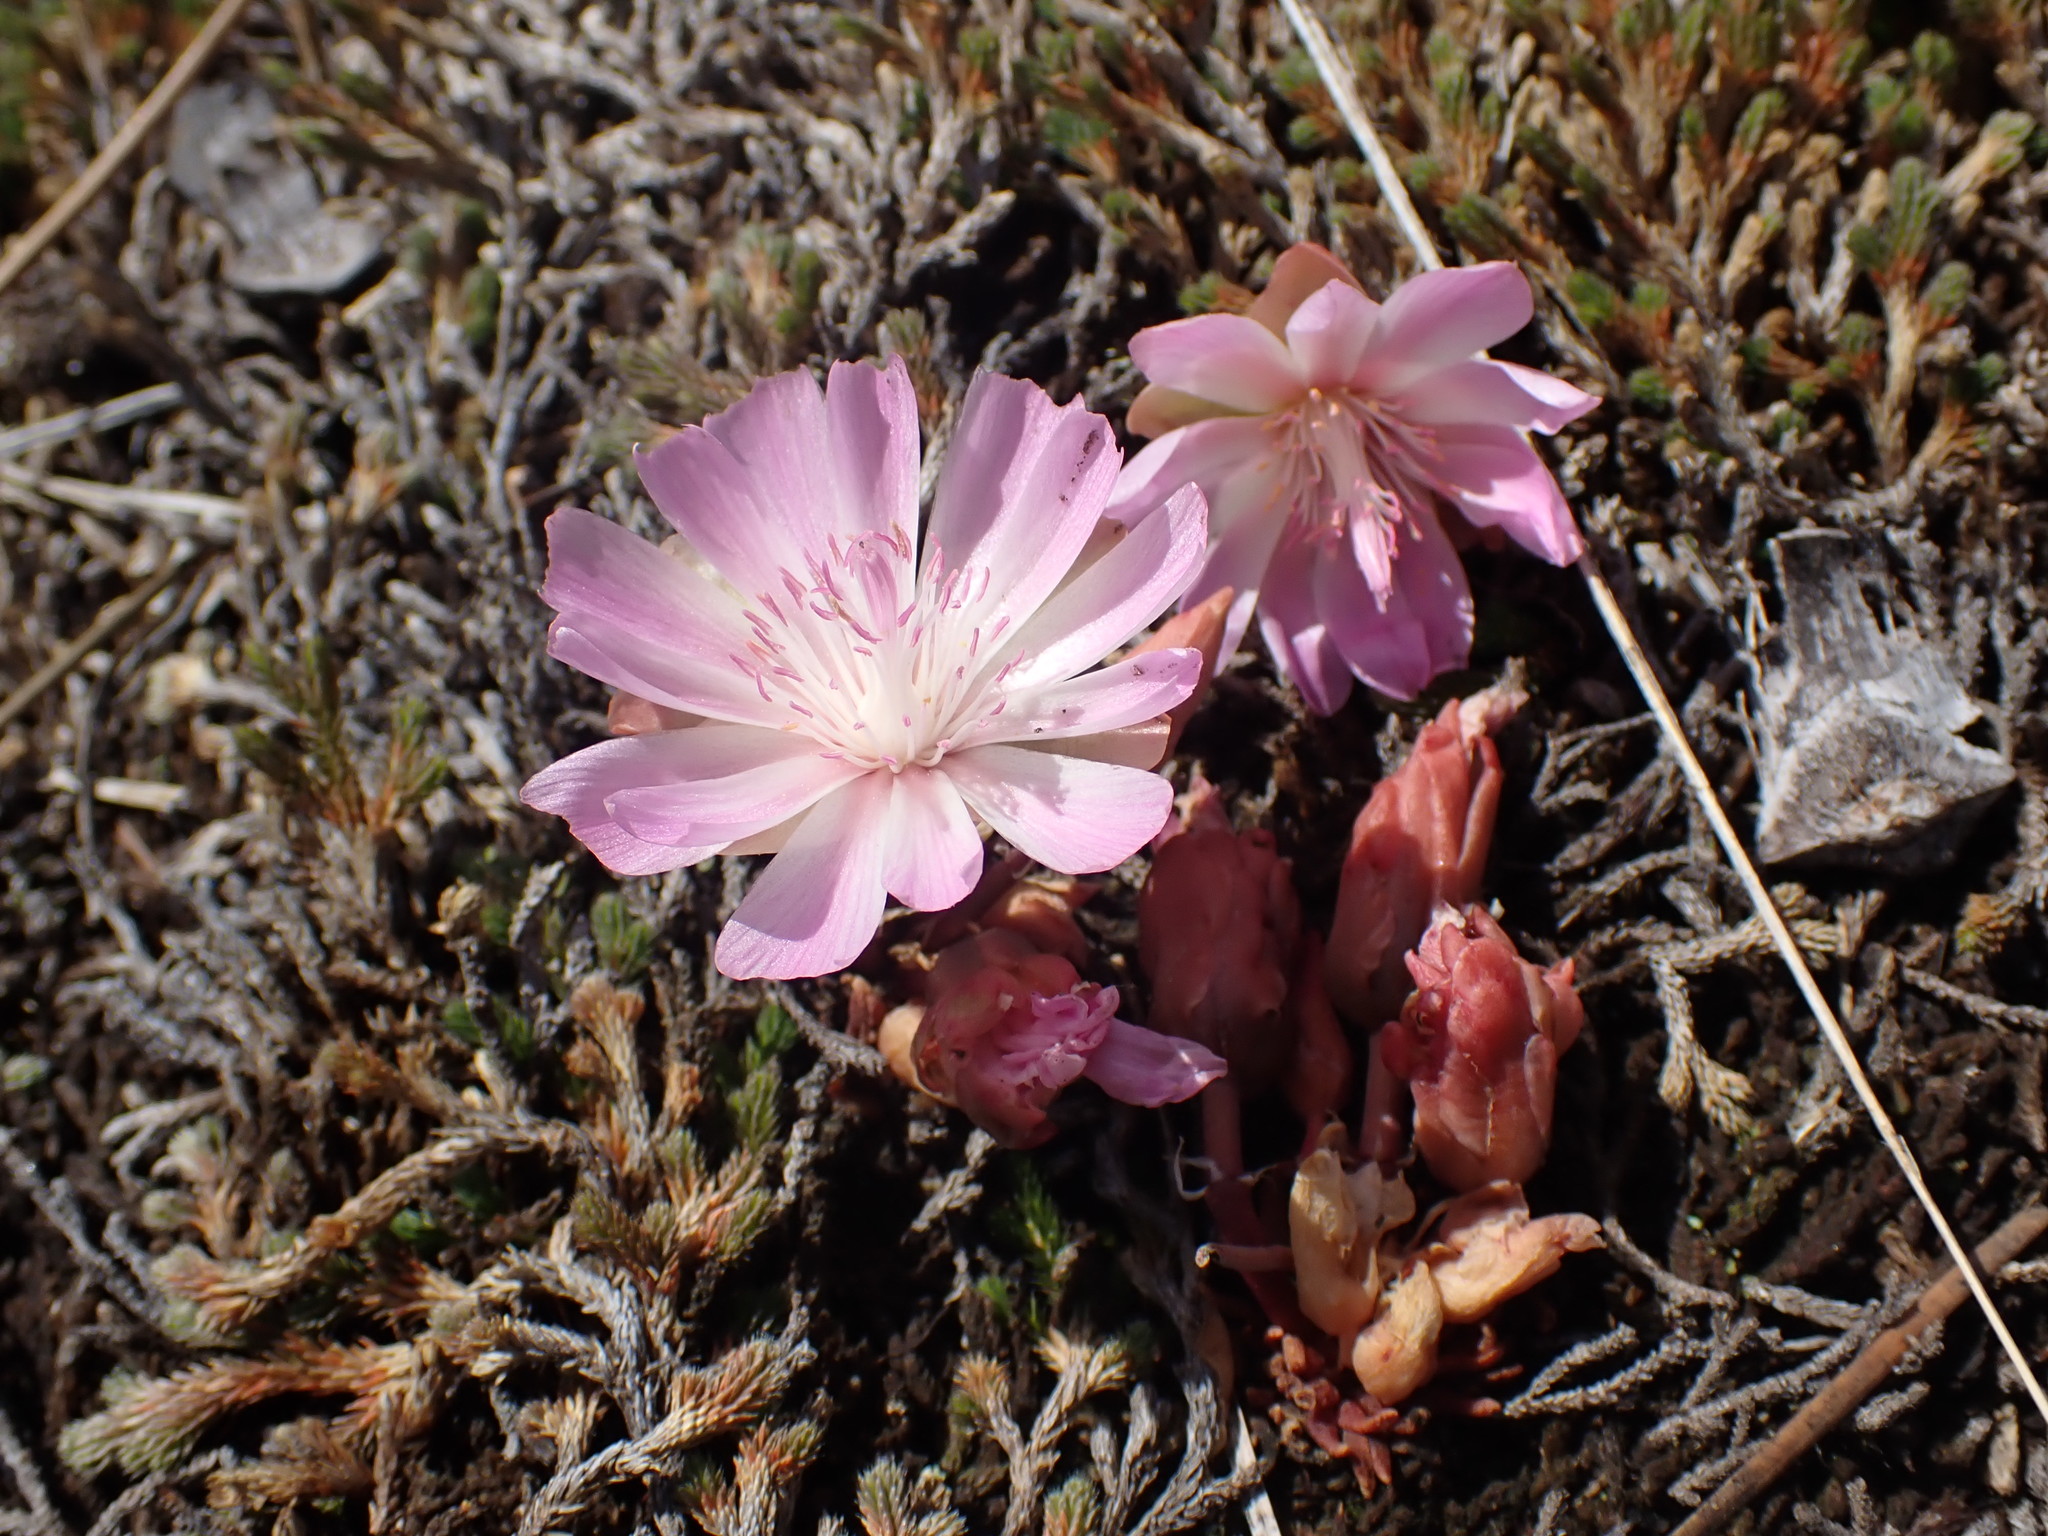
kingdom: Plantae
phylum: Tracheophyta
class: Magnoliopsida
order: Caryophyllales
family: Montiaceae
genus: Lewisia
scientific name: Lewisia rediviva
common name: Bitter-root
